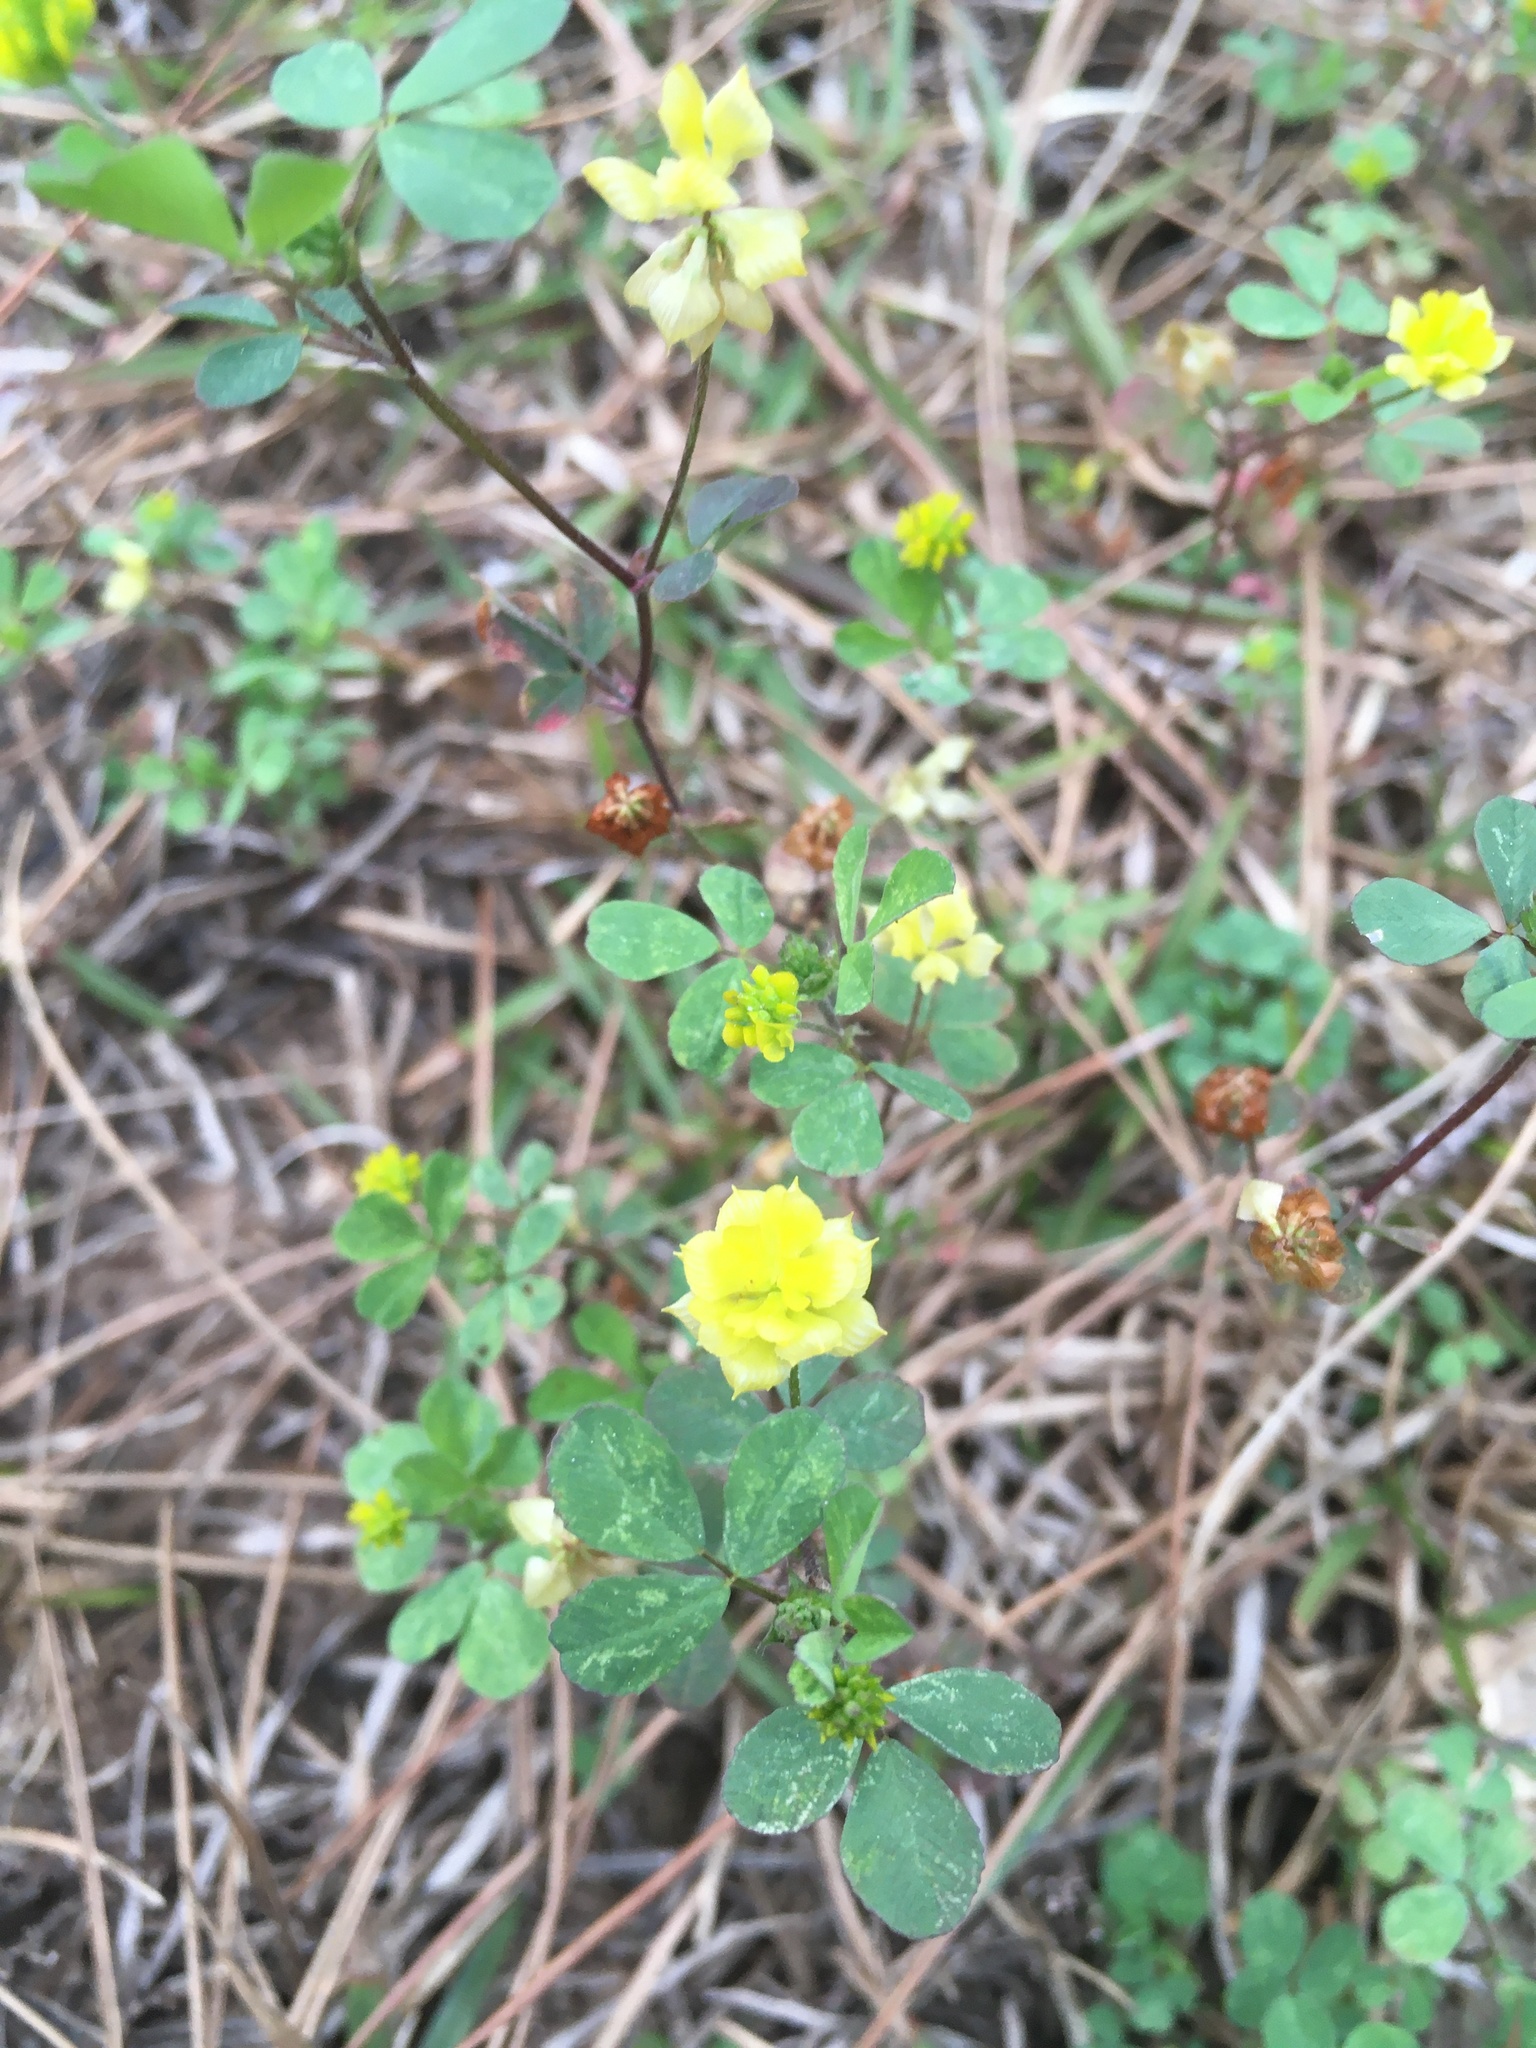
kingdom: Plantae
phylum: Tracheophyta
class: Magnoliopsida
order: Fabales
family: Fabaceae
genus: Trifolium
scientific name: Trifolium campestre
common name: Field clover
